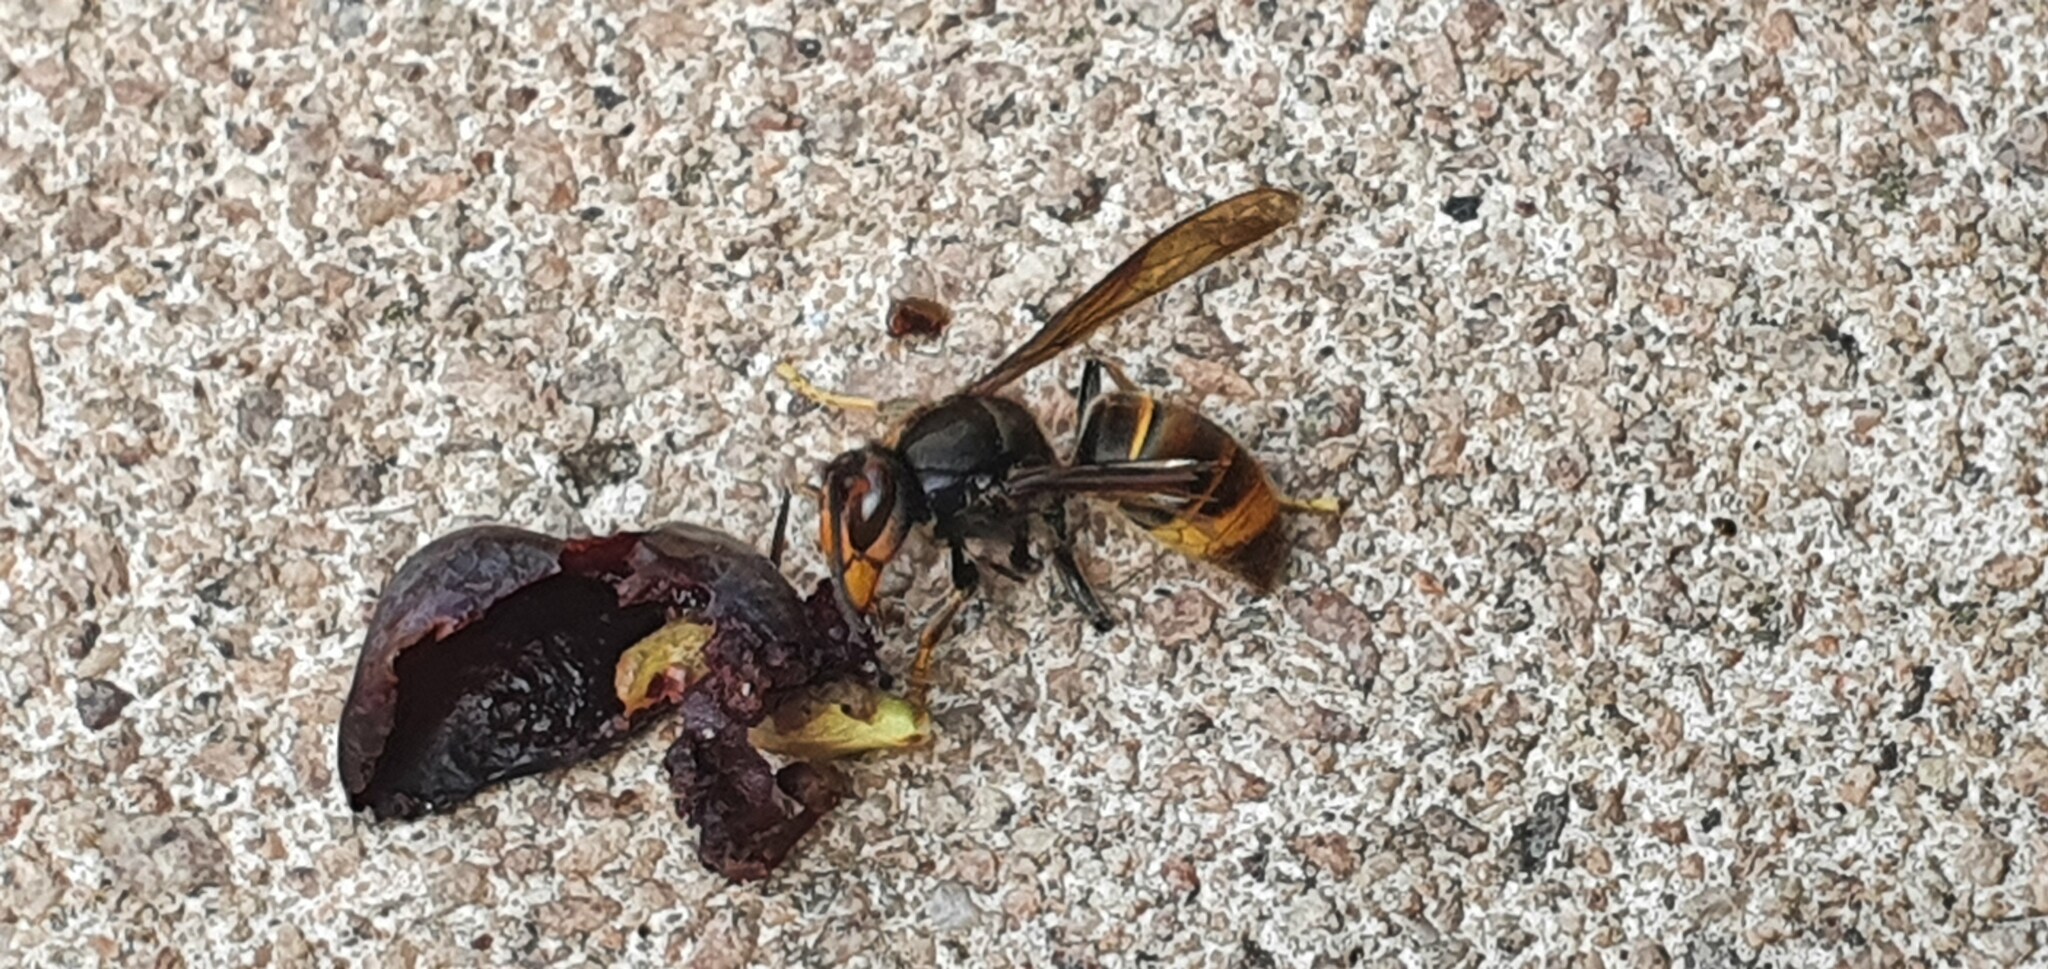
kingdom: Animalia
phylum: Arthropoda
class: Insecta
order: Hymenoptera
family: Vespidae
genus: Vespa
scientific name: Vespa velutina
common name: Asian hornet
